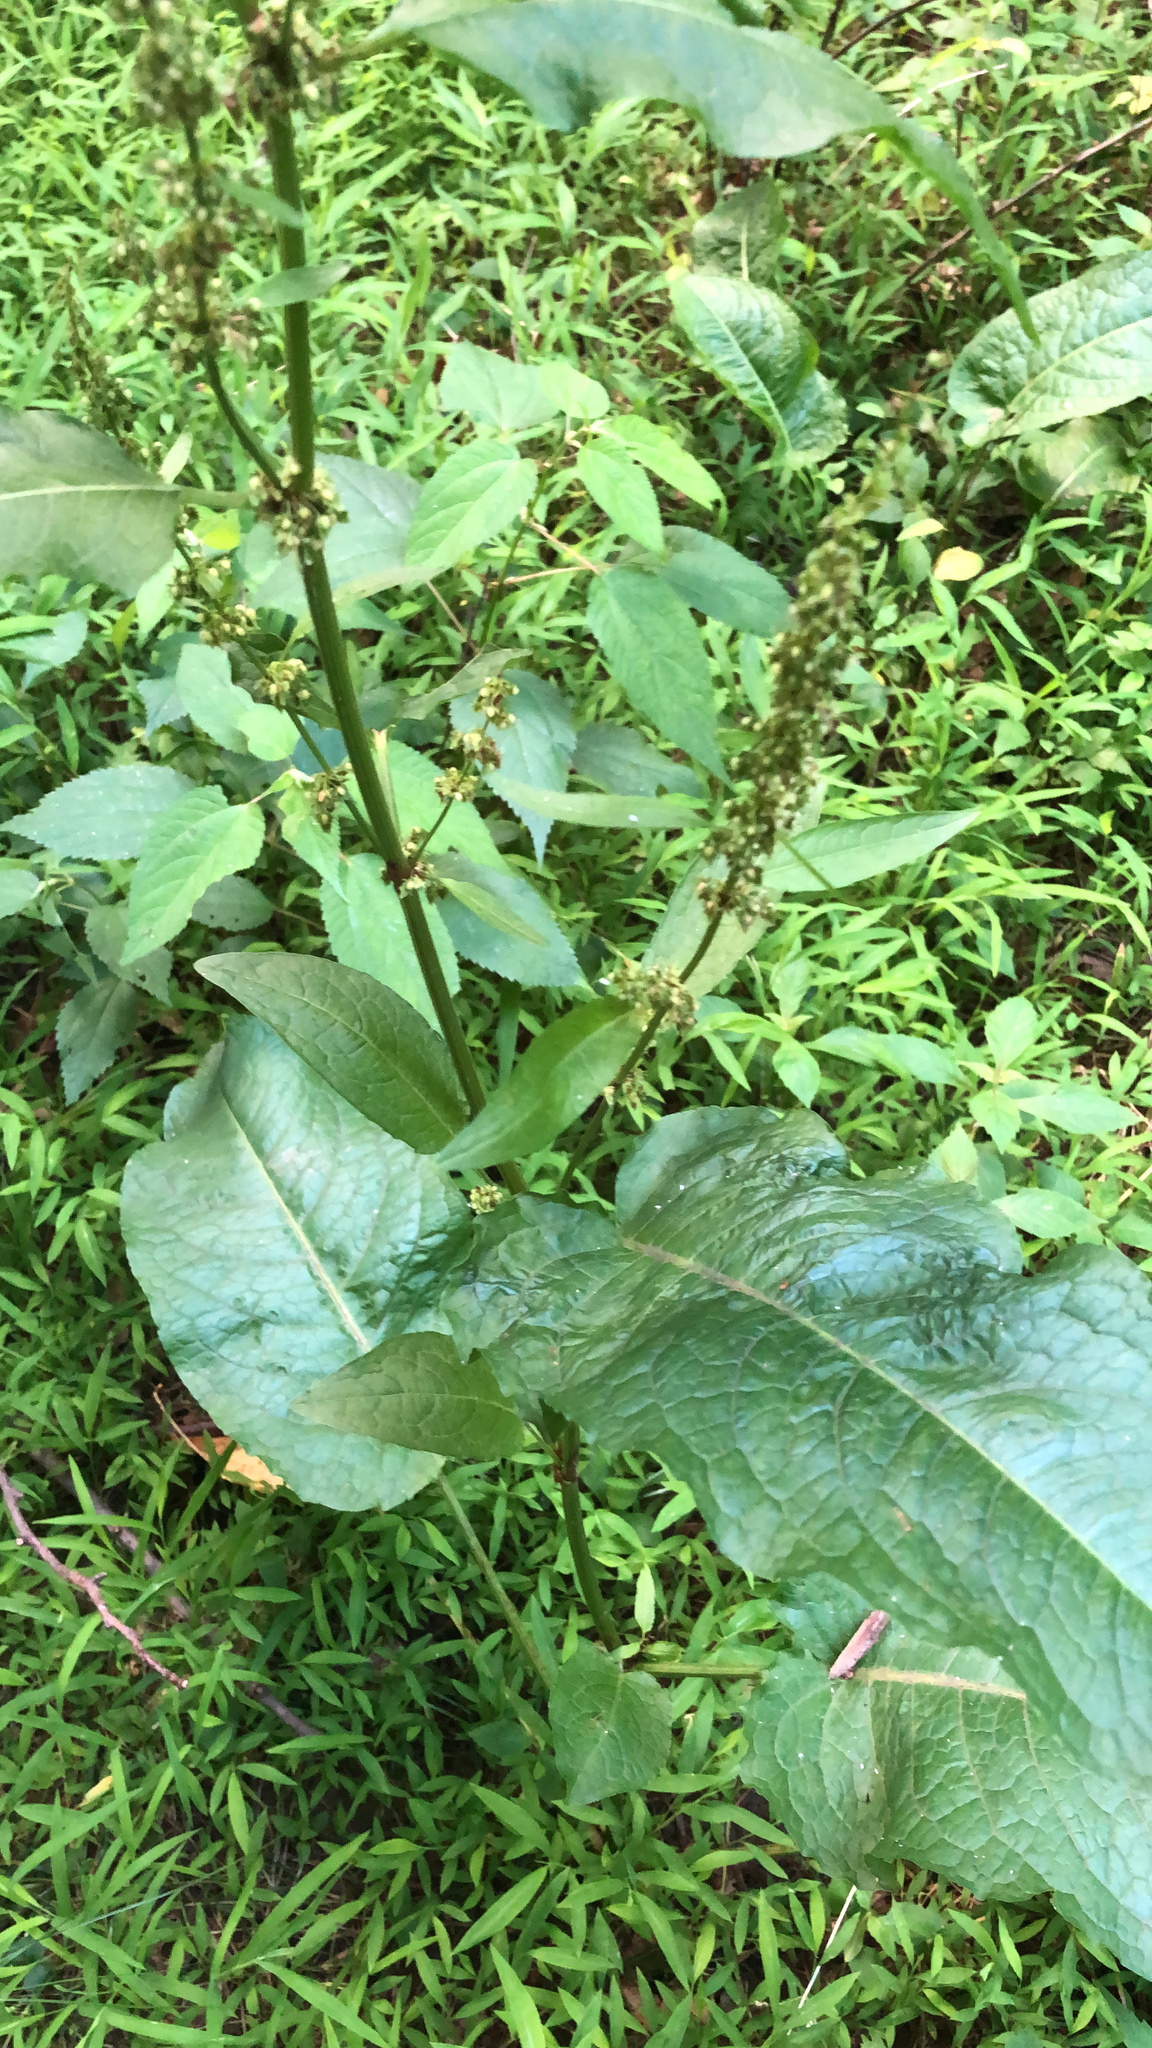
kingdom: Plantae
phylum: Tracheophyta
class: Magnoliopsida
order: Caryophyllales
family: Polygonaceae
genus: Rumex
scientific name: Rumex obtusifolius
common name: Bitter dock
